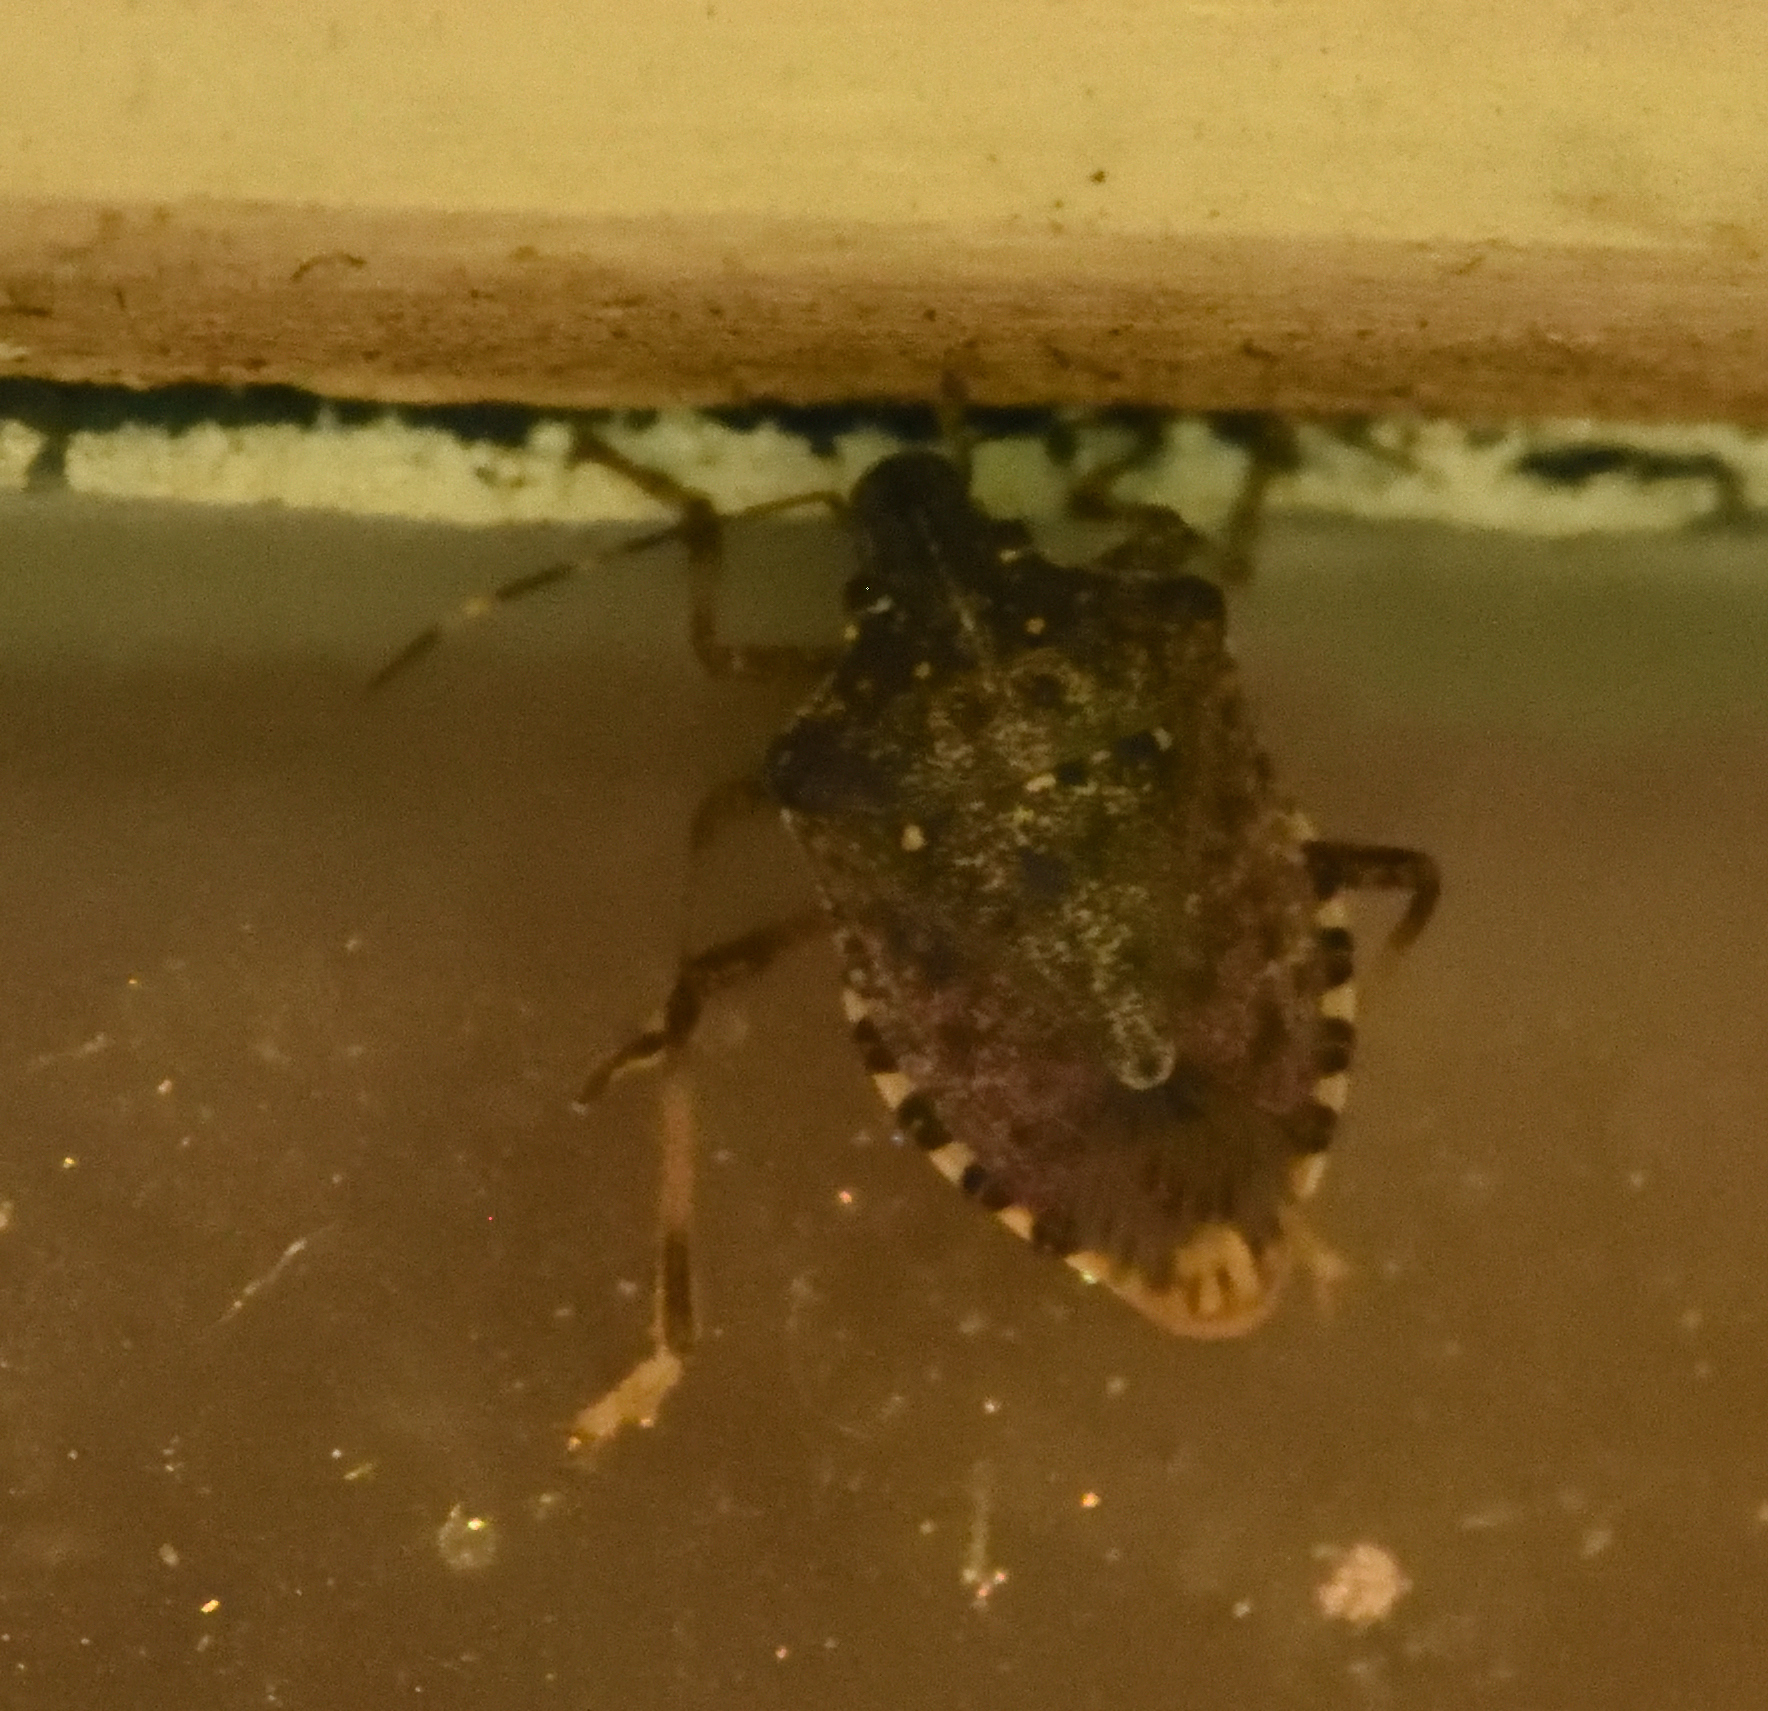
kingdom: Animalia
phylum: Arthropoda
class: Insecta
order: Hemiptera
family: Pentatomidae
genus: Halyomorpha
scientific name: Halyomorpha halys
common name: Brown marmorated stink bug
